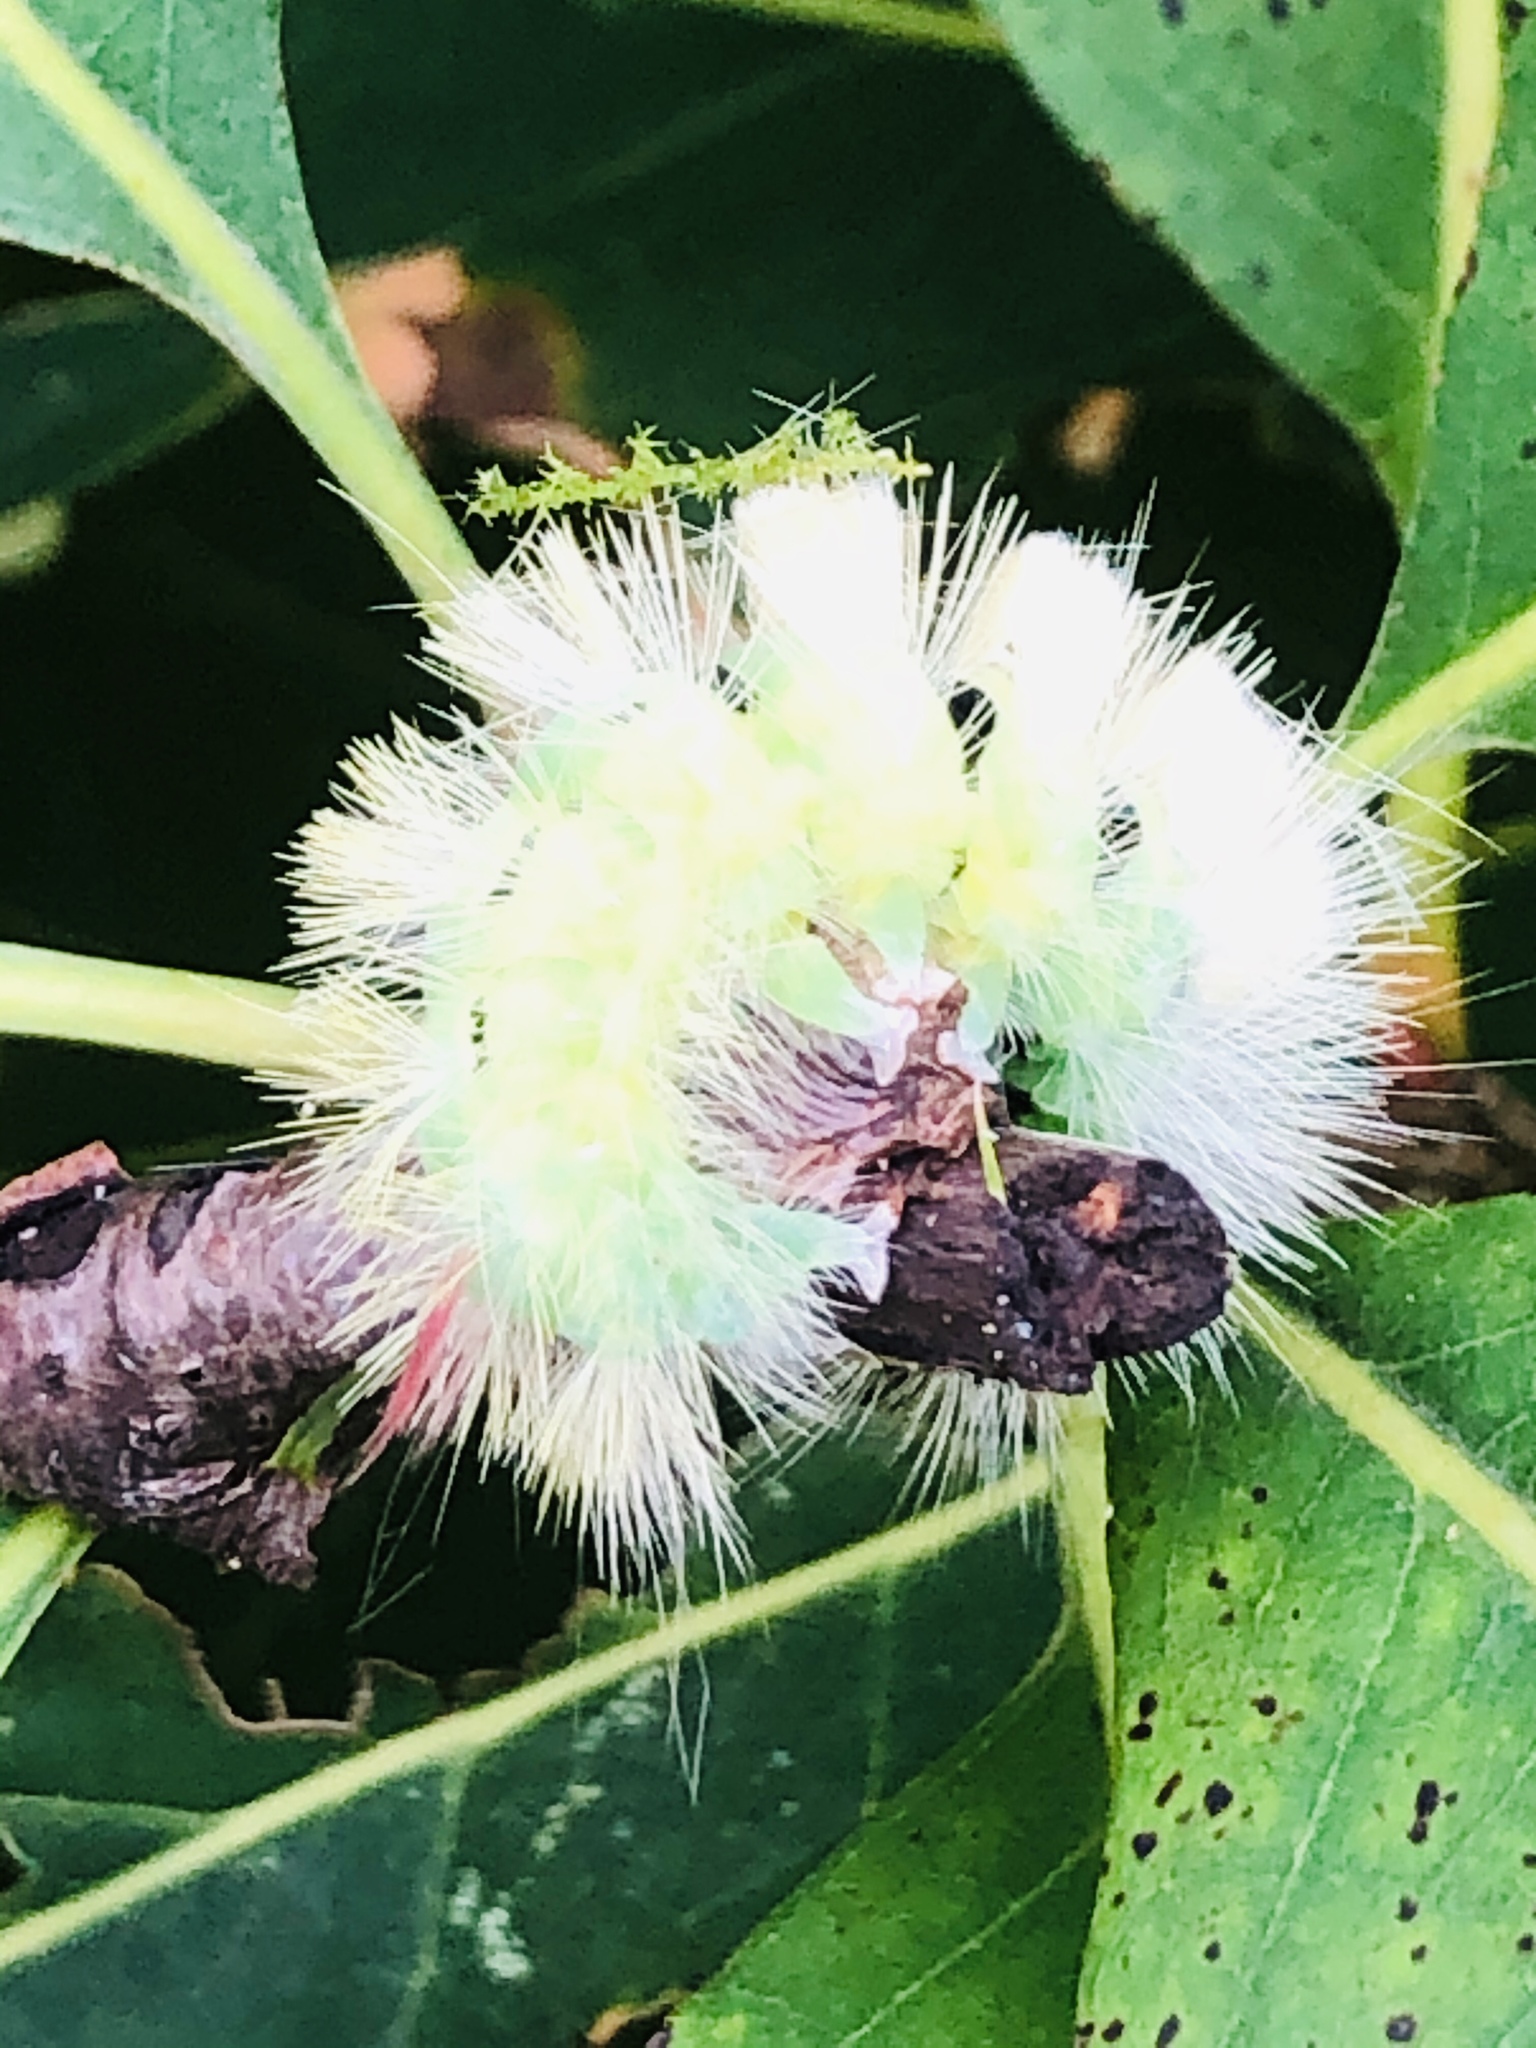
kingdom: Animalia
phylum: Arthropoda
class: Insecta
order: Lepidoptera
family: Erebidae
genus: Calliteara
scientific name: Calliteara pudibunda
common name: Pale tussock
